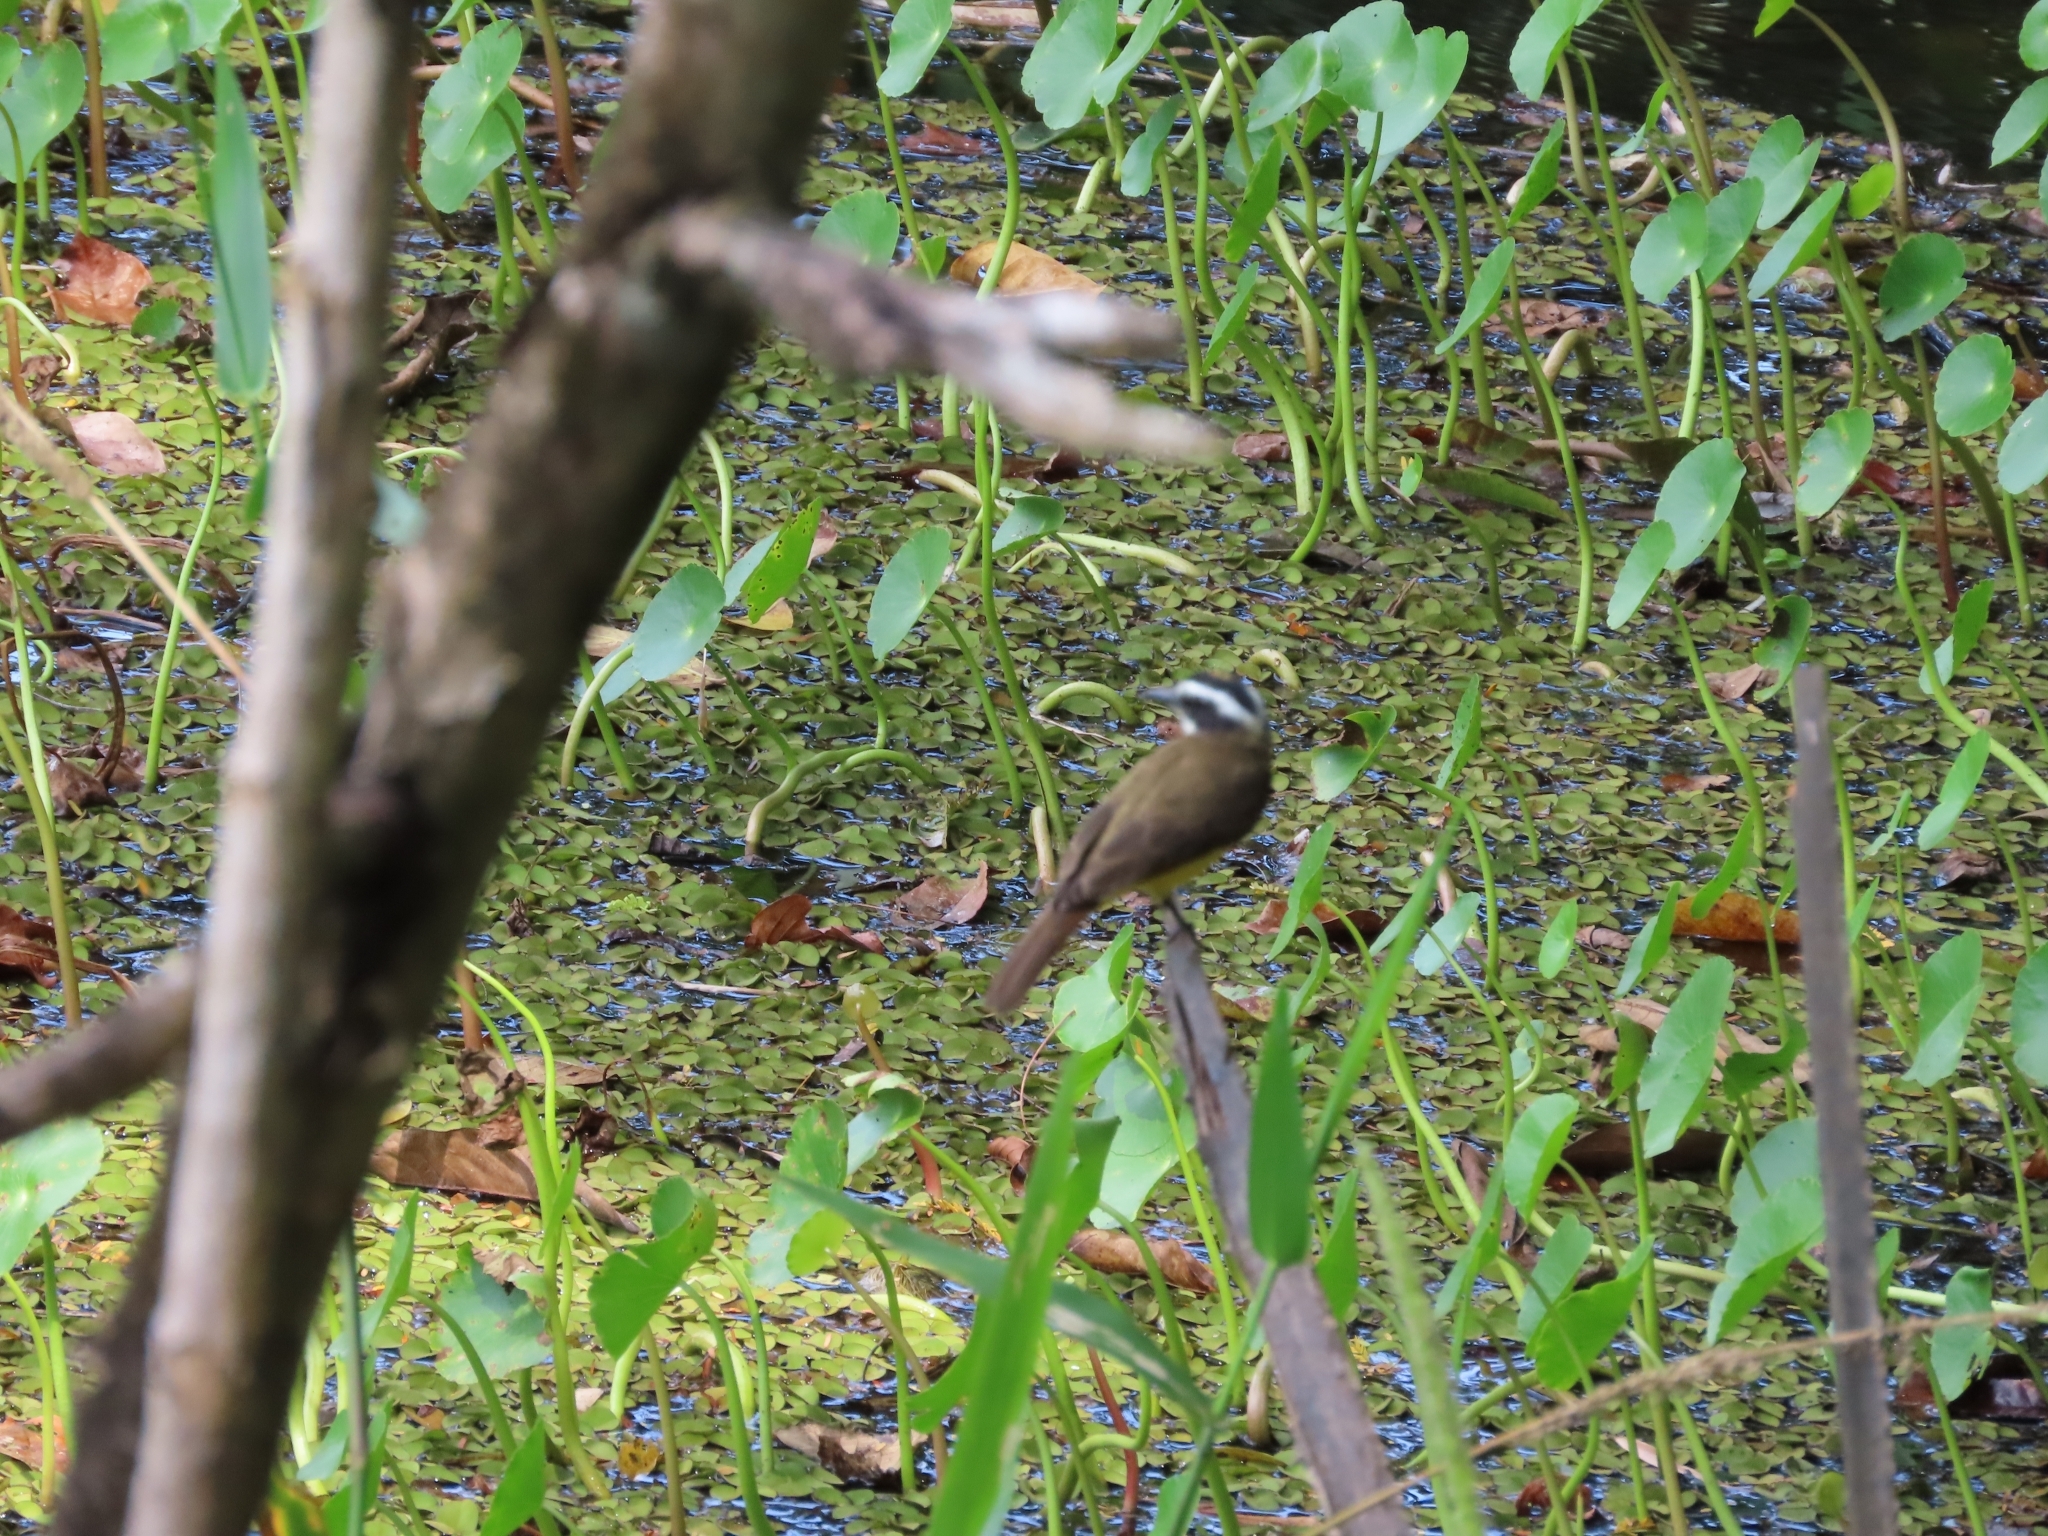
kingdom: Animalia
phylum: Chordata
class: Aves
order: Passeriformes
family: Tyrannidae
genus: Pitangus
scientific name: Pitangus lictor
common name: Lesser kiskadee
